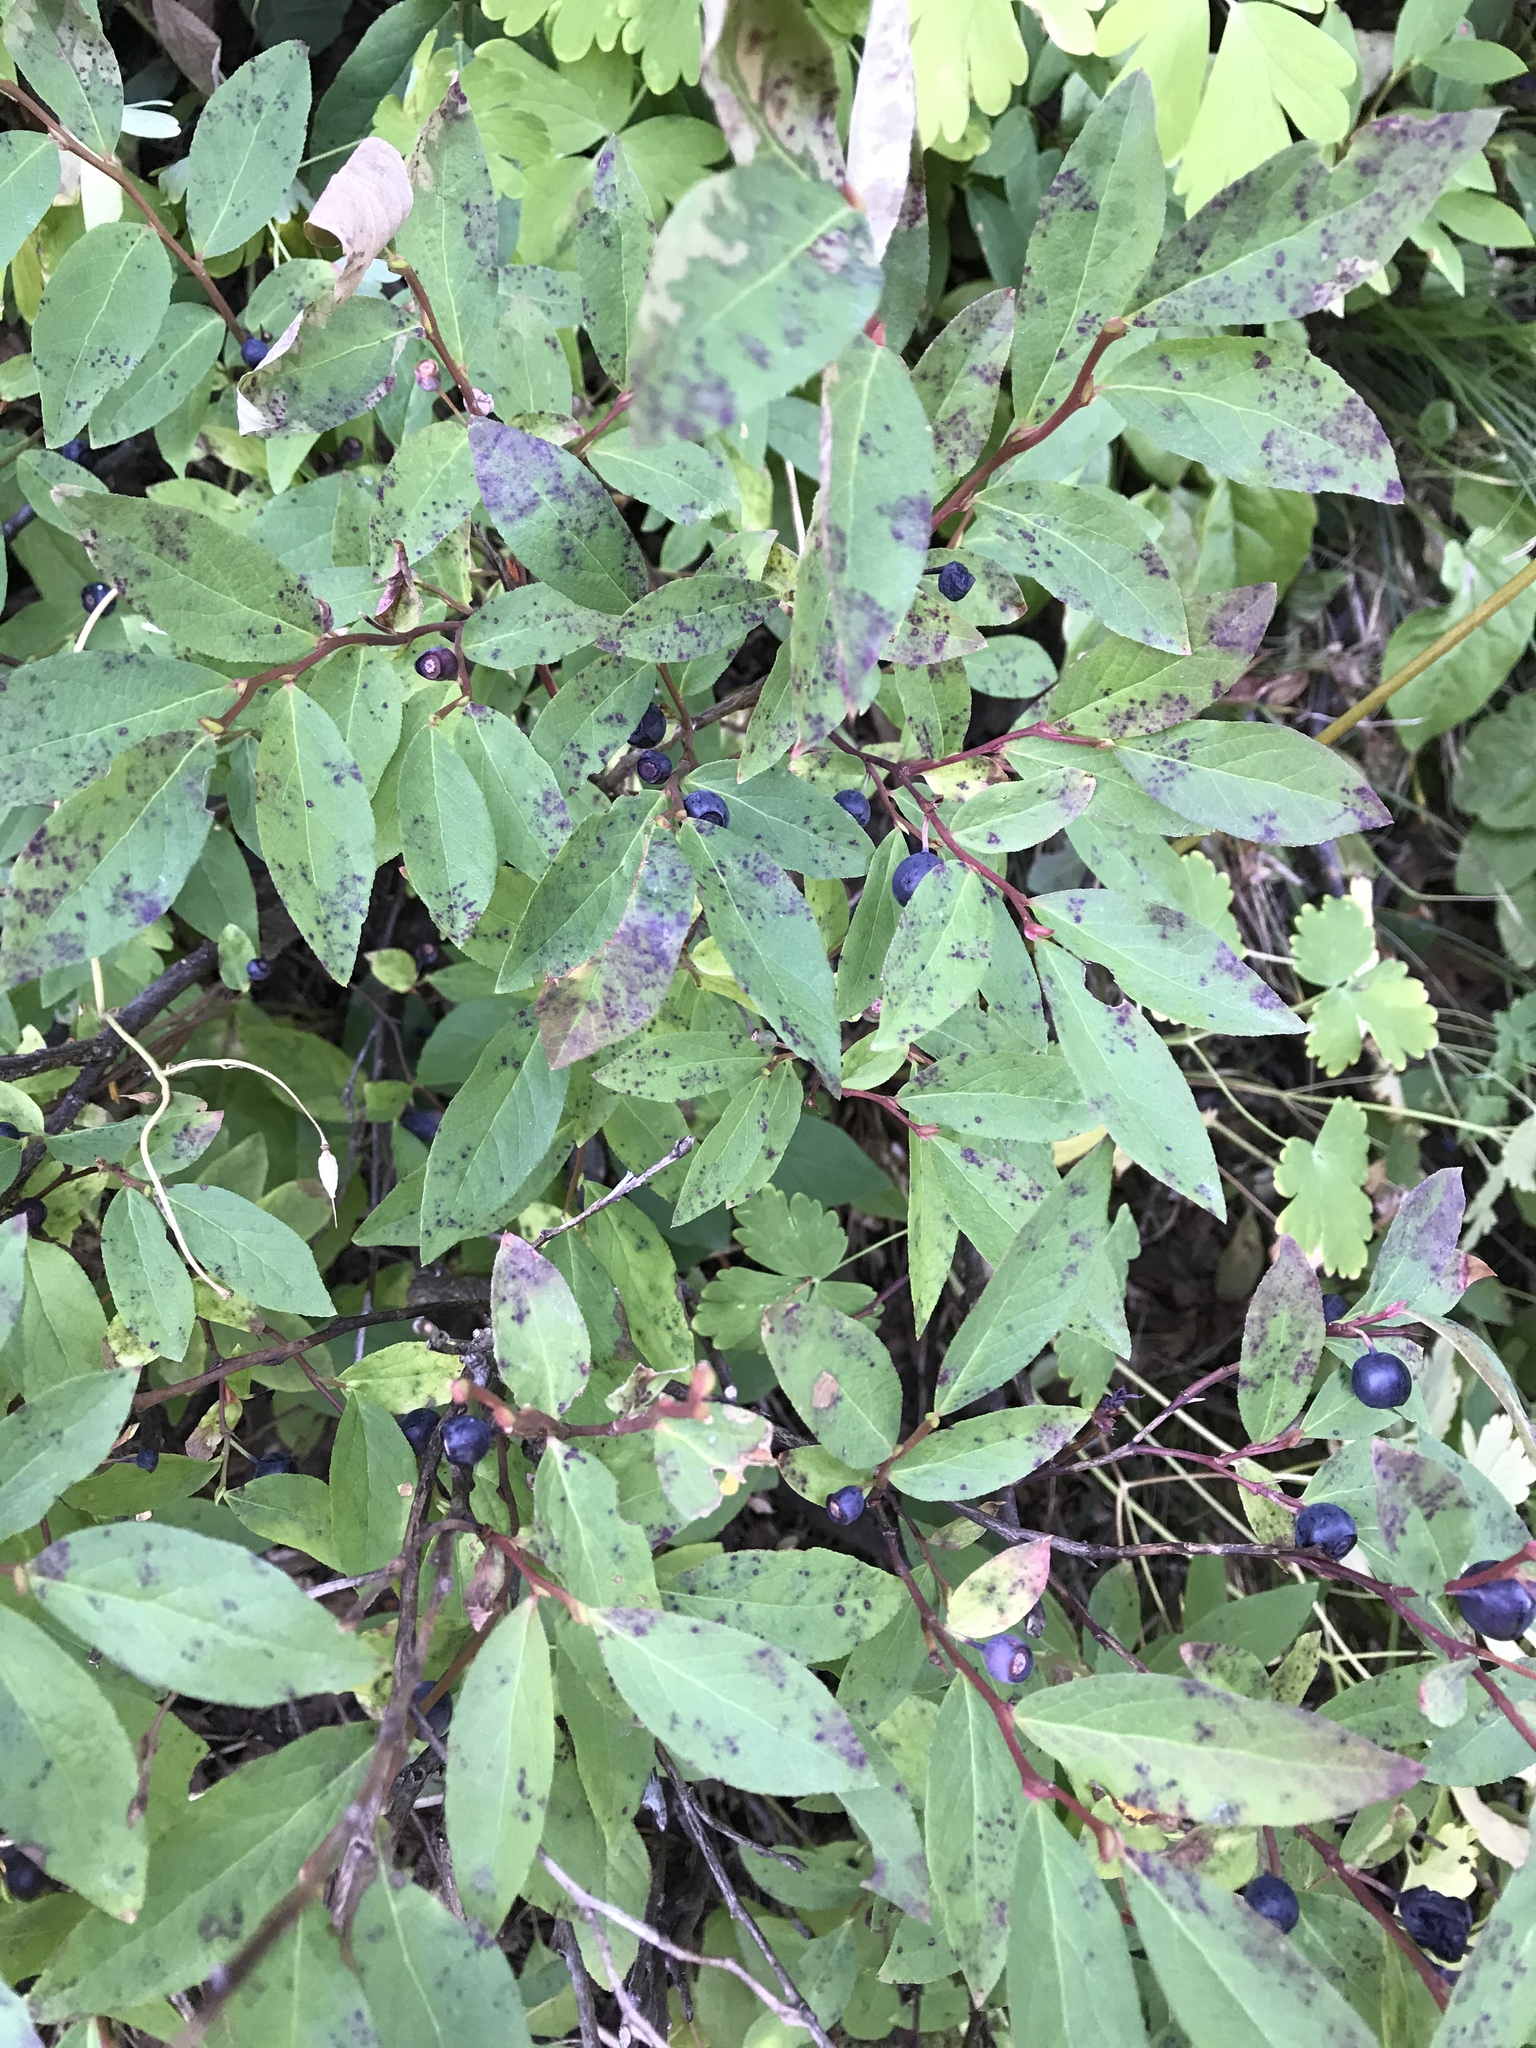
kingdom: Plantae
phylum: Tracheophyta
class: Magnoliopsida
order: Ericales
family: Ericaceae
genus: Vaccinium
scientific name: Vaccinium membranaceum
